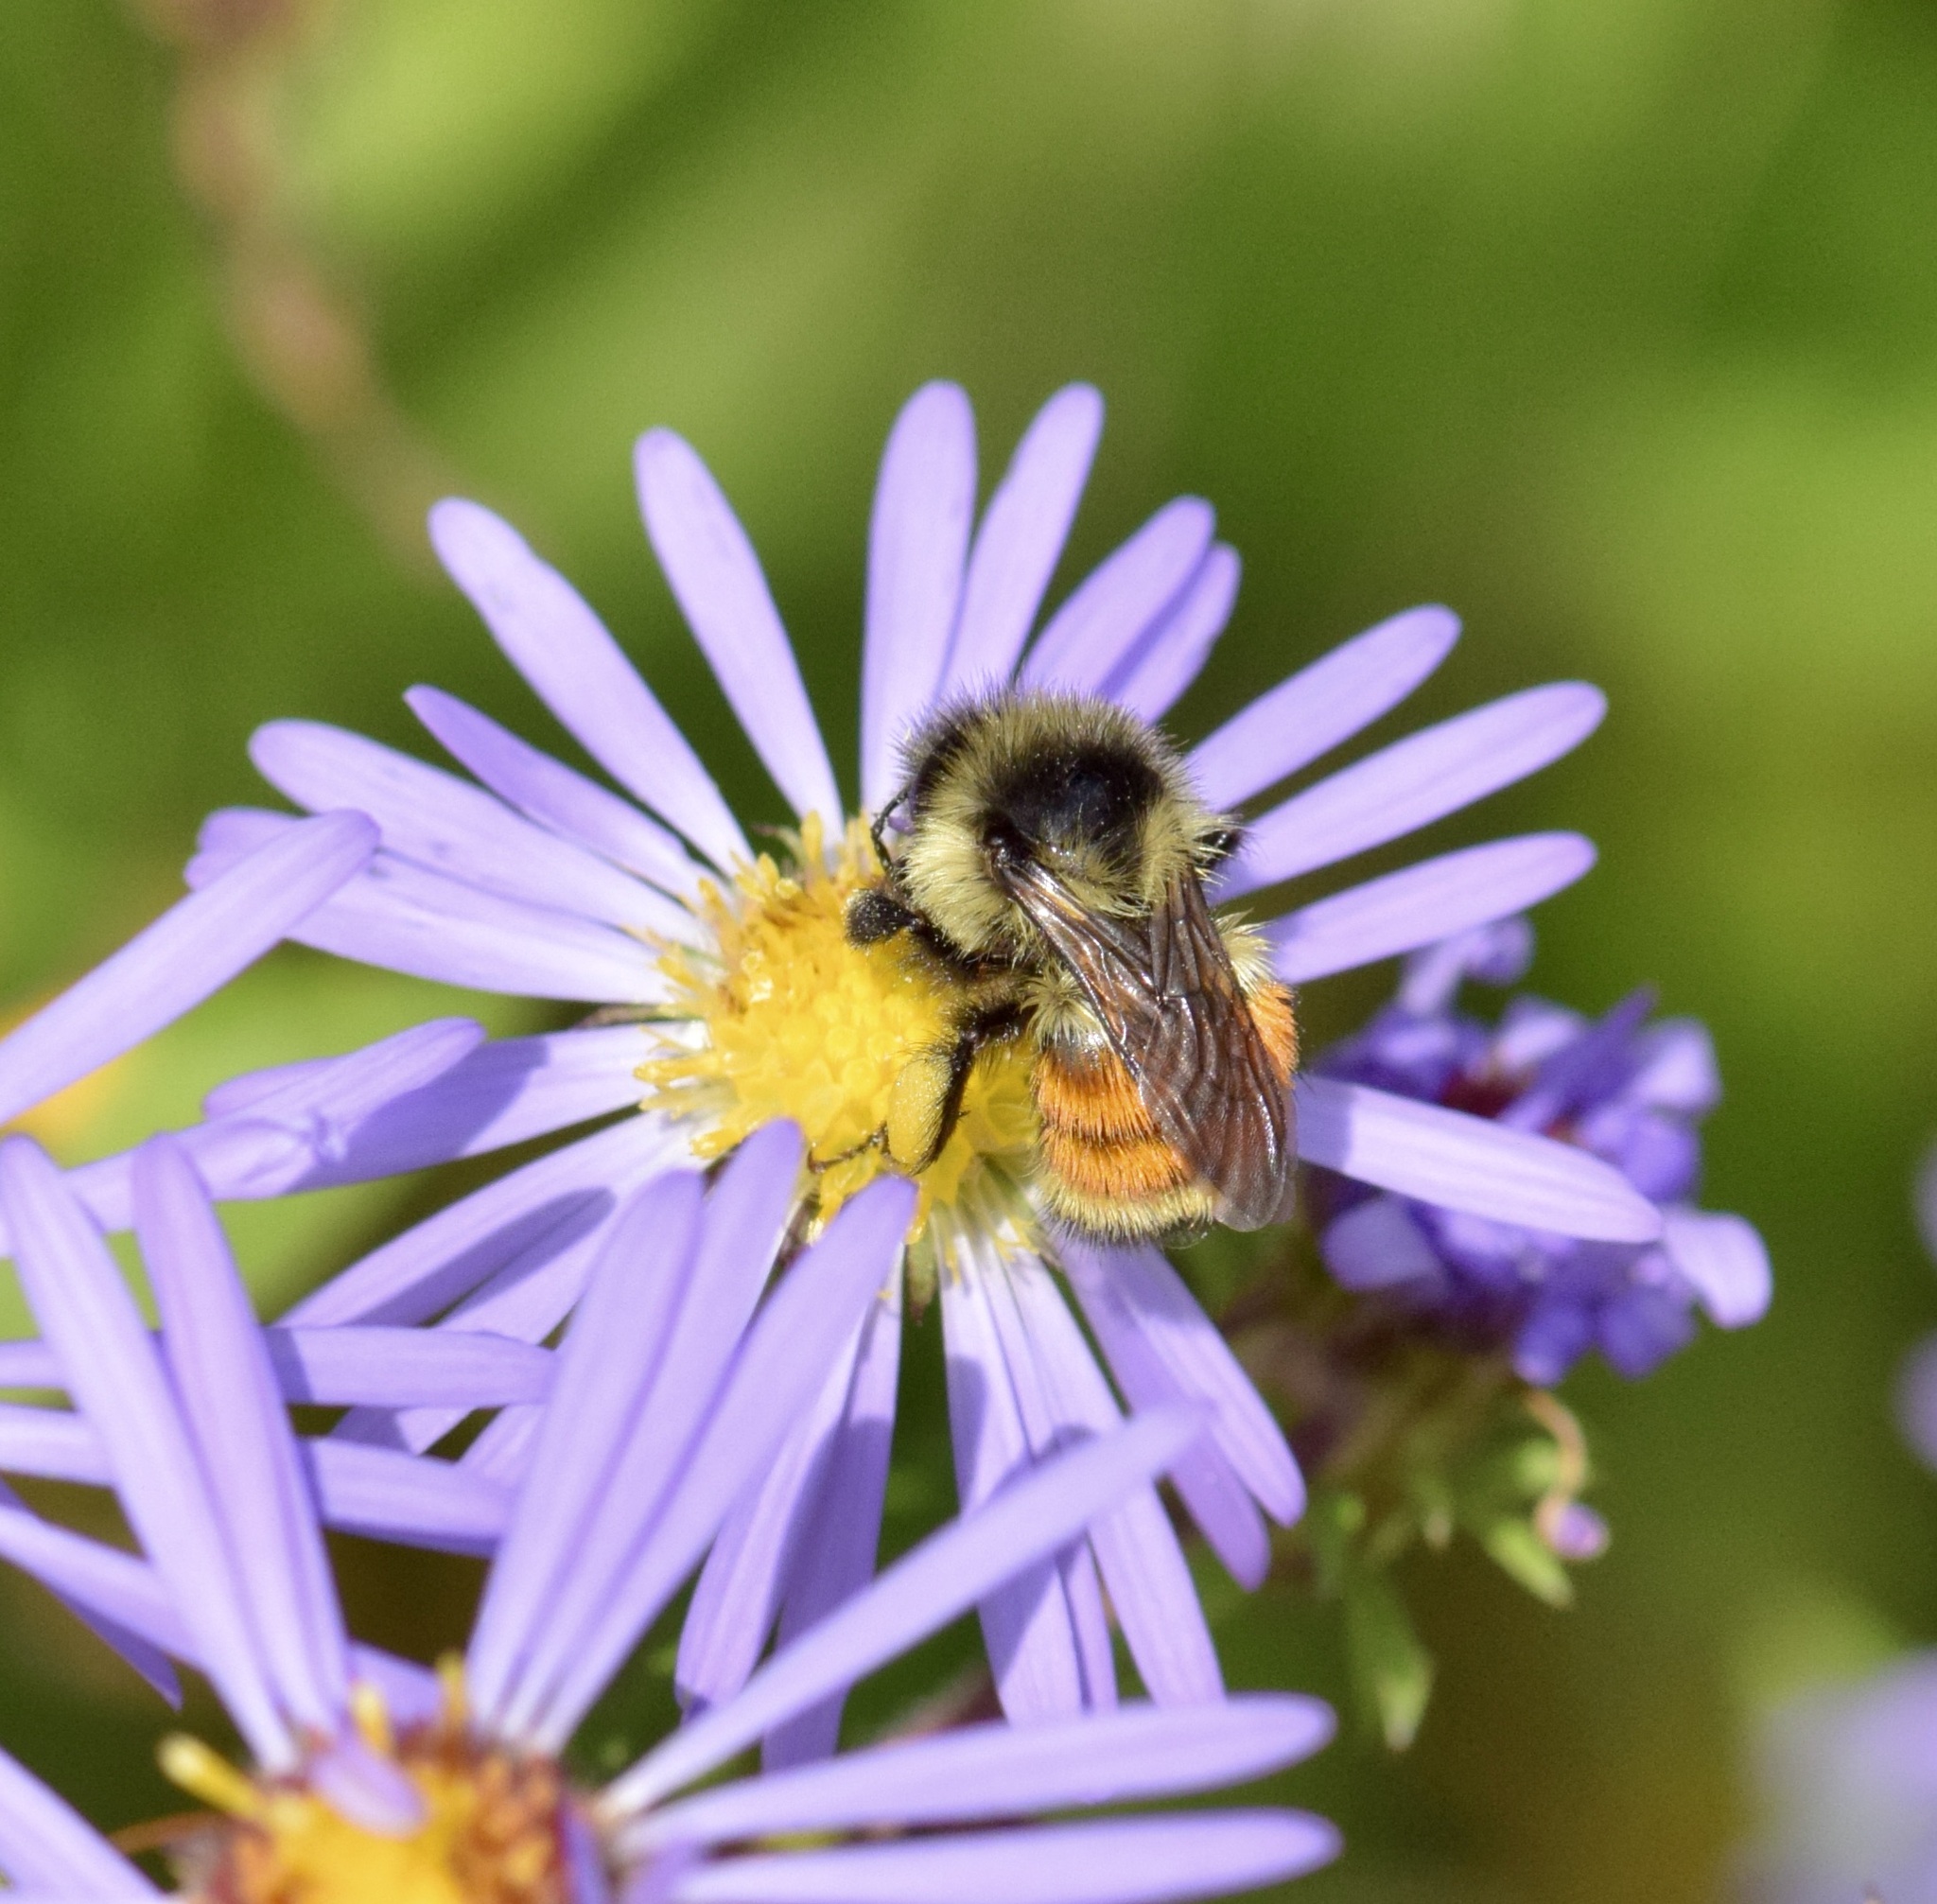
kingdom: Animalia
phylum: Arthropoda
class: Insecta
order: Hymenoptera
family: Apidae
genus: Bombus
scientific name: Bombus ternarius
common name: Tri-colored bumble bee
